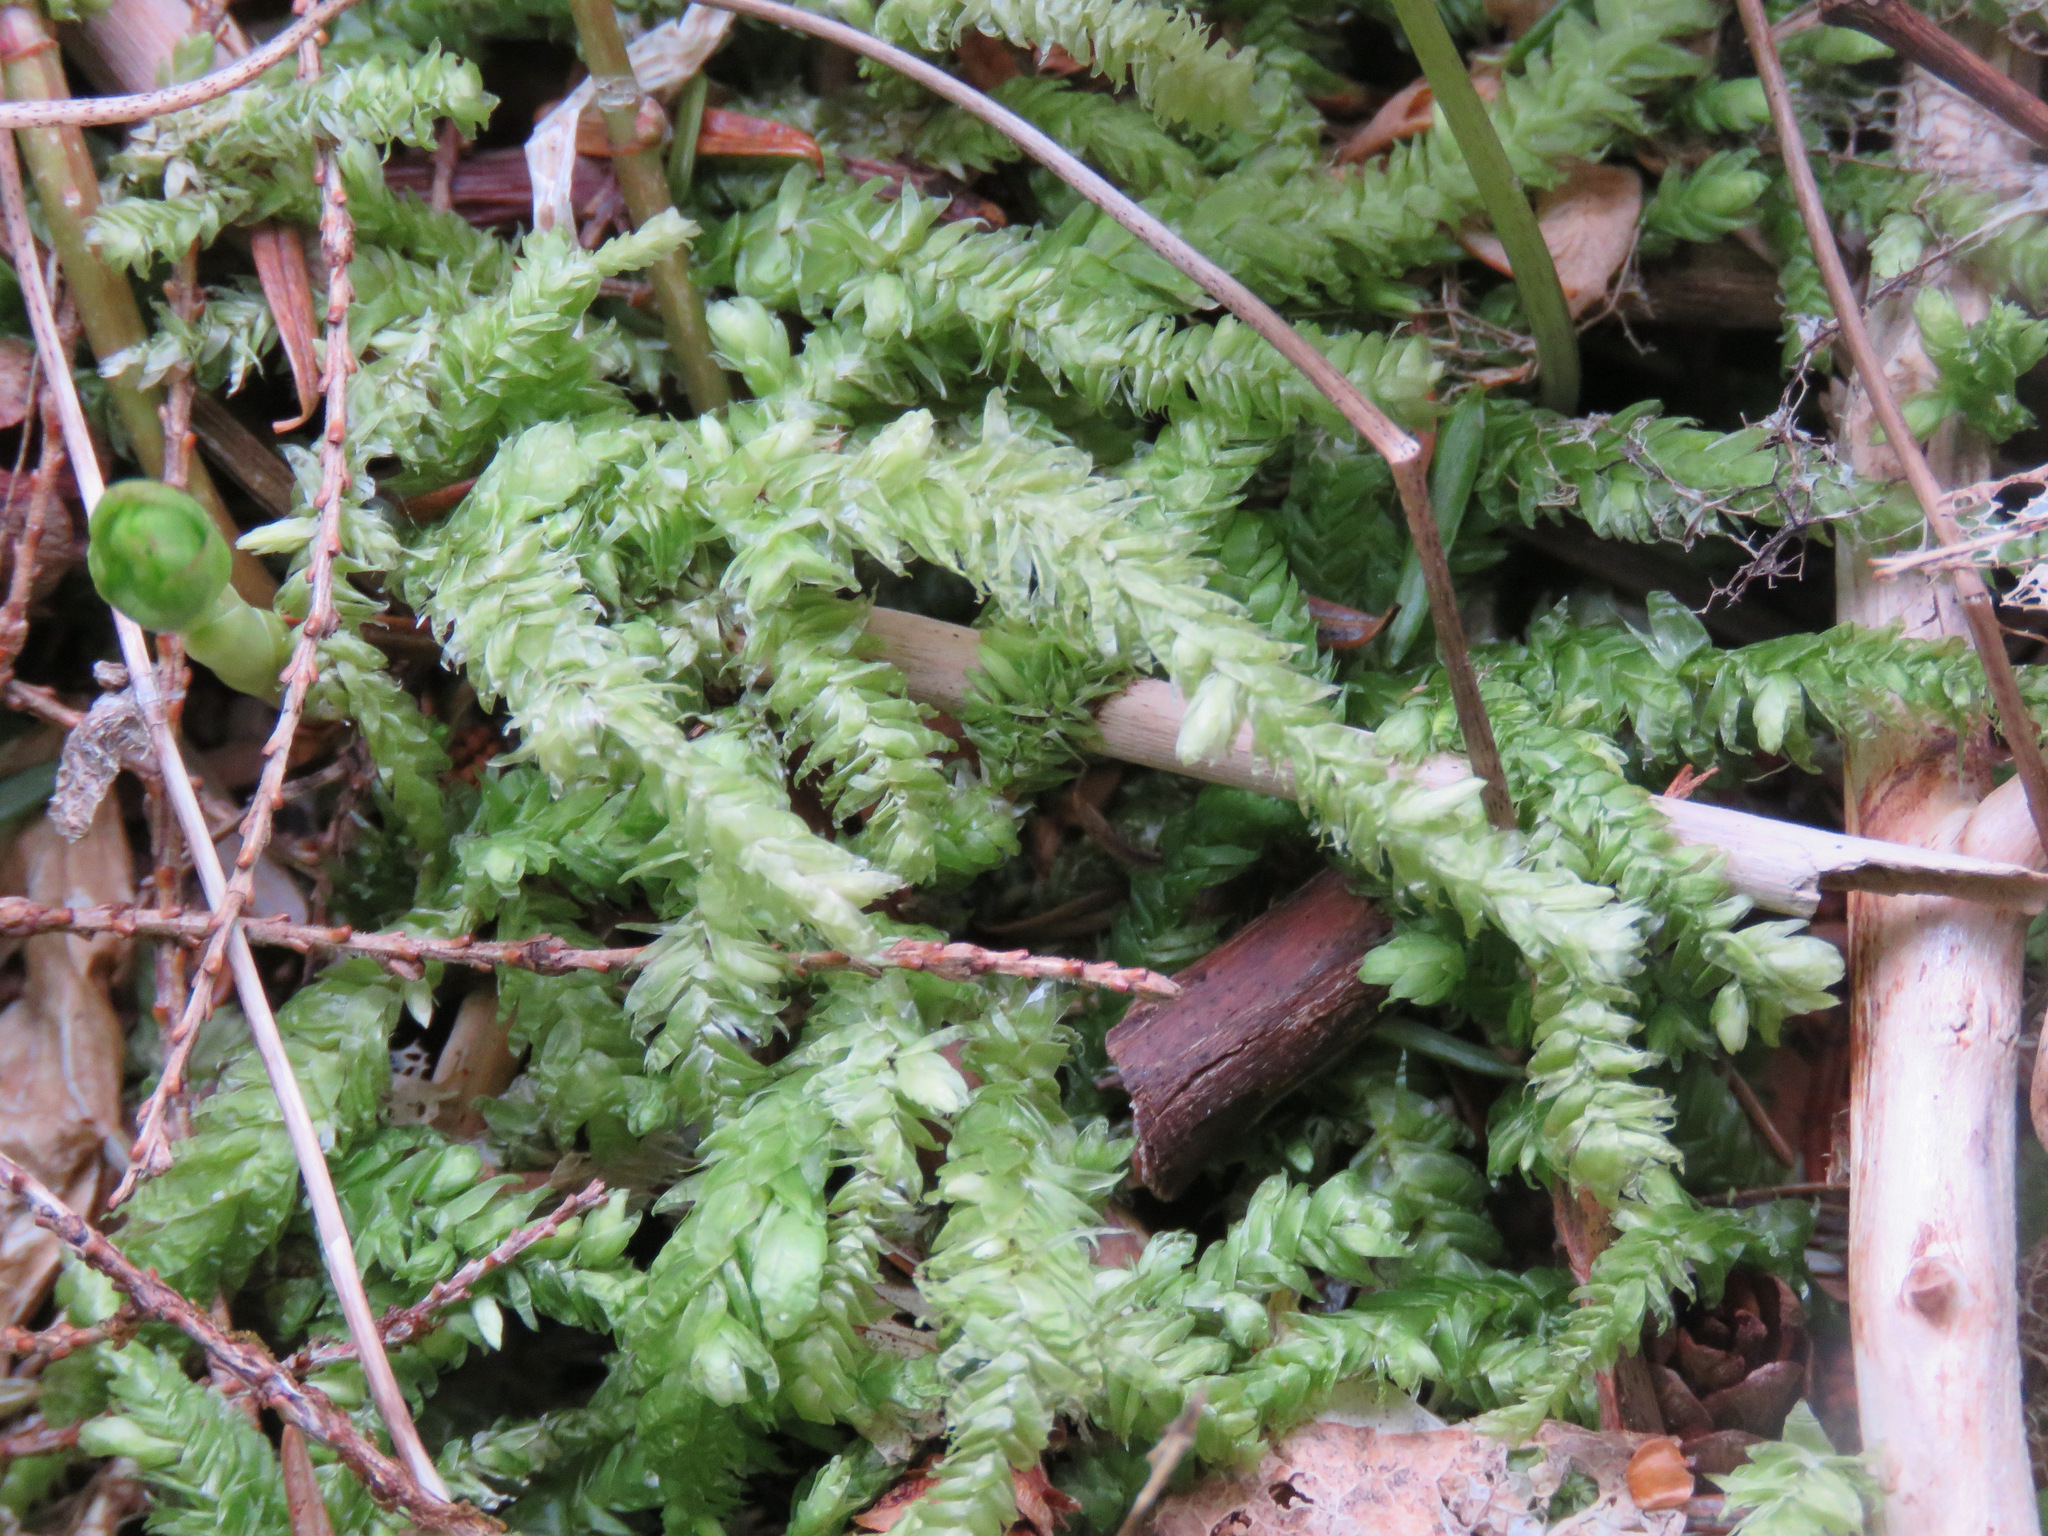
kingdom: Plantae
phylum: Bryophyta
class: Bryopsida
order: Hypnales
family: Plagiotheciaceae
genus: Plagiothecium
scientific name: Plagiothecium undulatum
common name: Waved silk-moss
